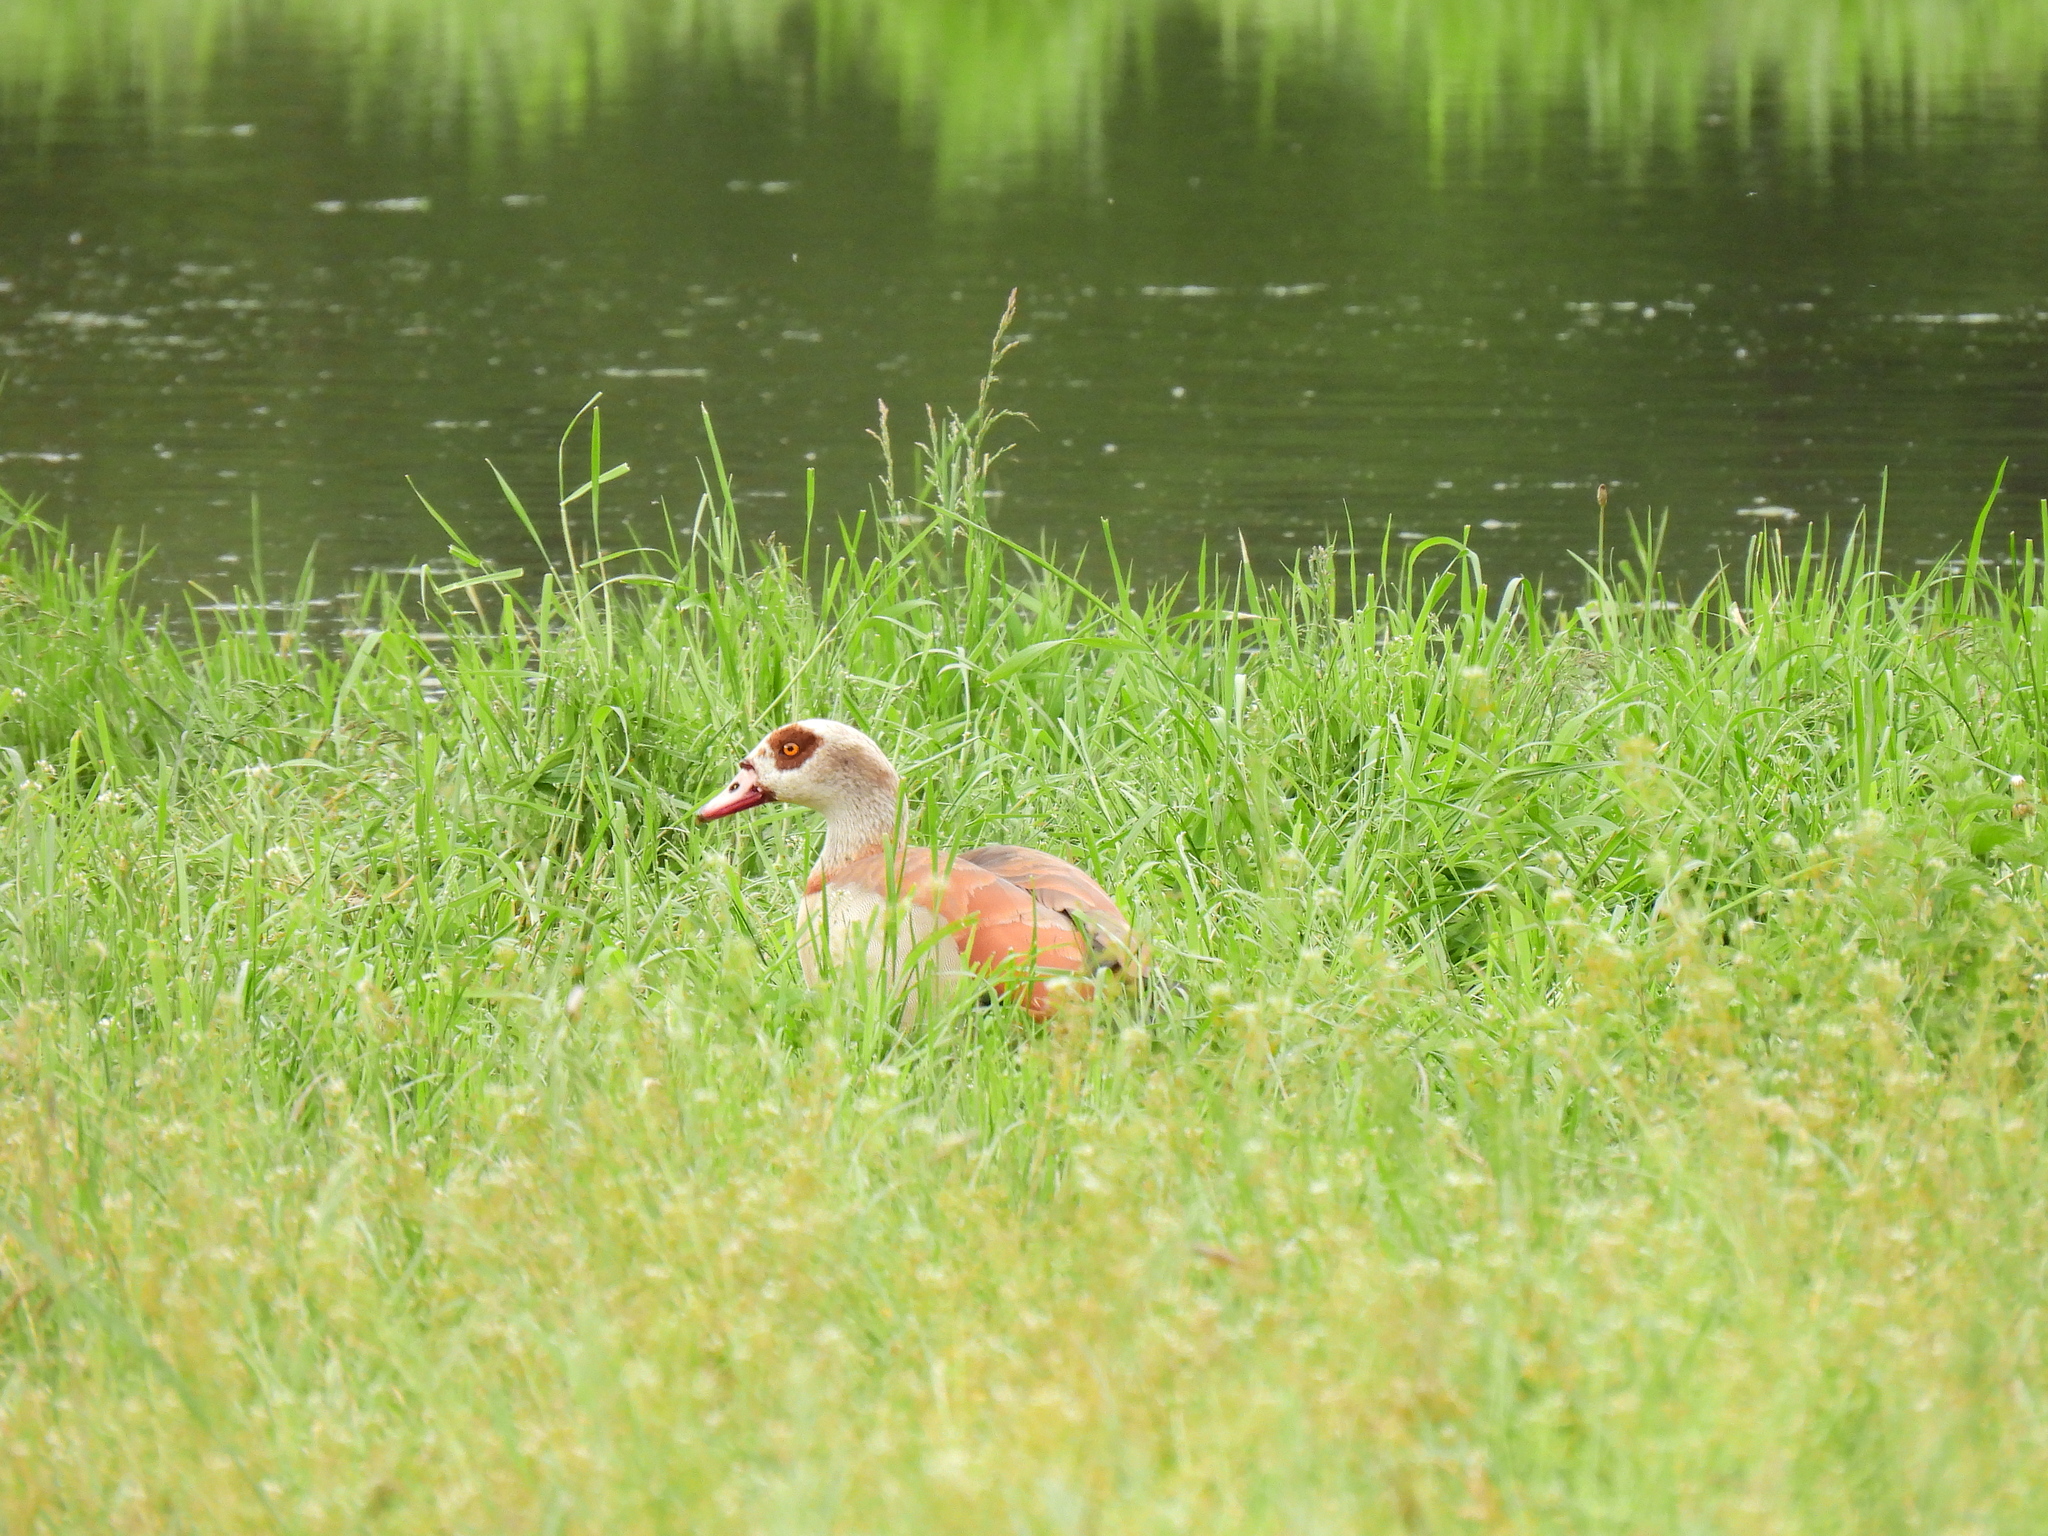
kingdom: Animalia
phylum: Chordata
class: Aves
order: Anseriformes
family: Anatidae
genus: Alopochen
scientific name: Alopochen aegyptiaca
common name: Egyptian goose
